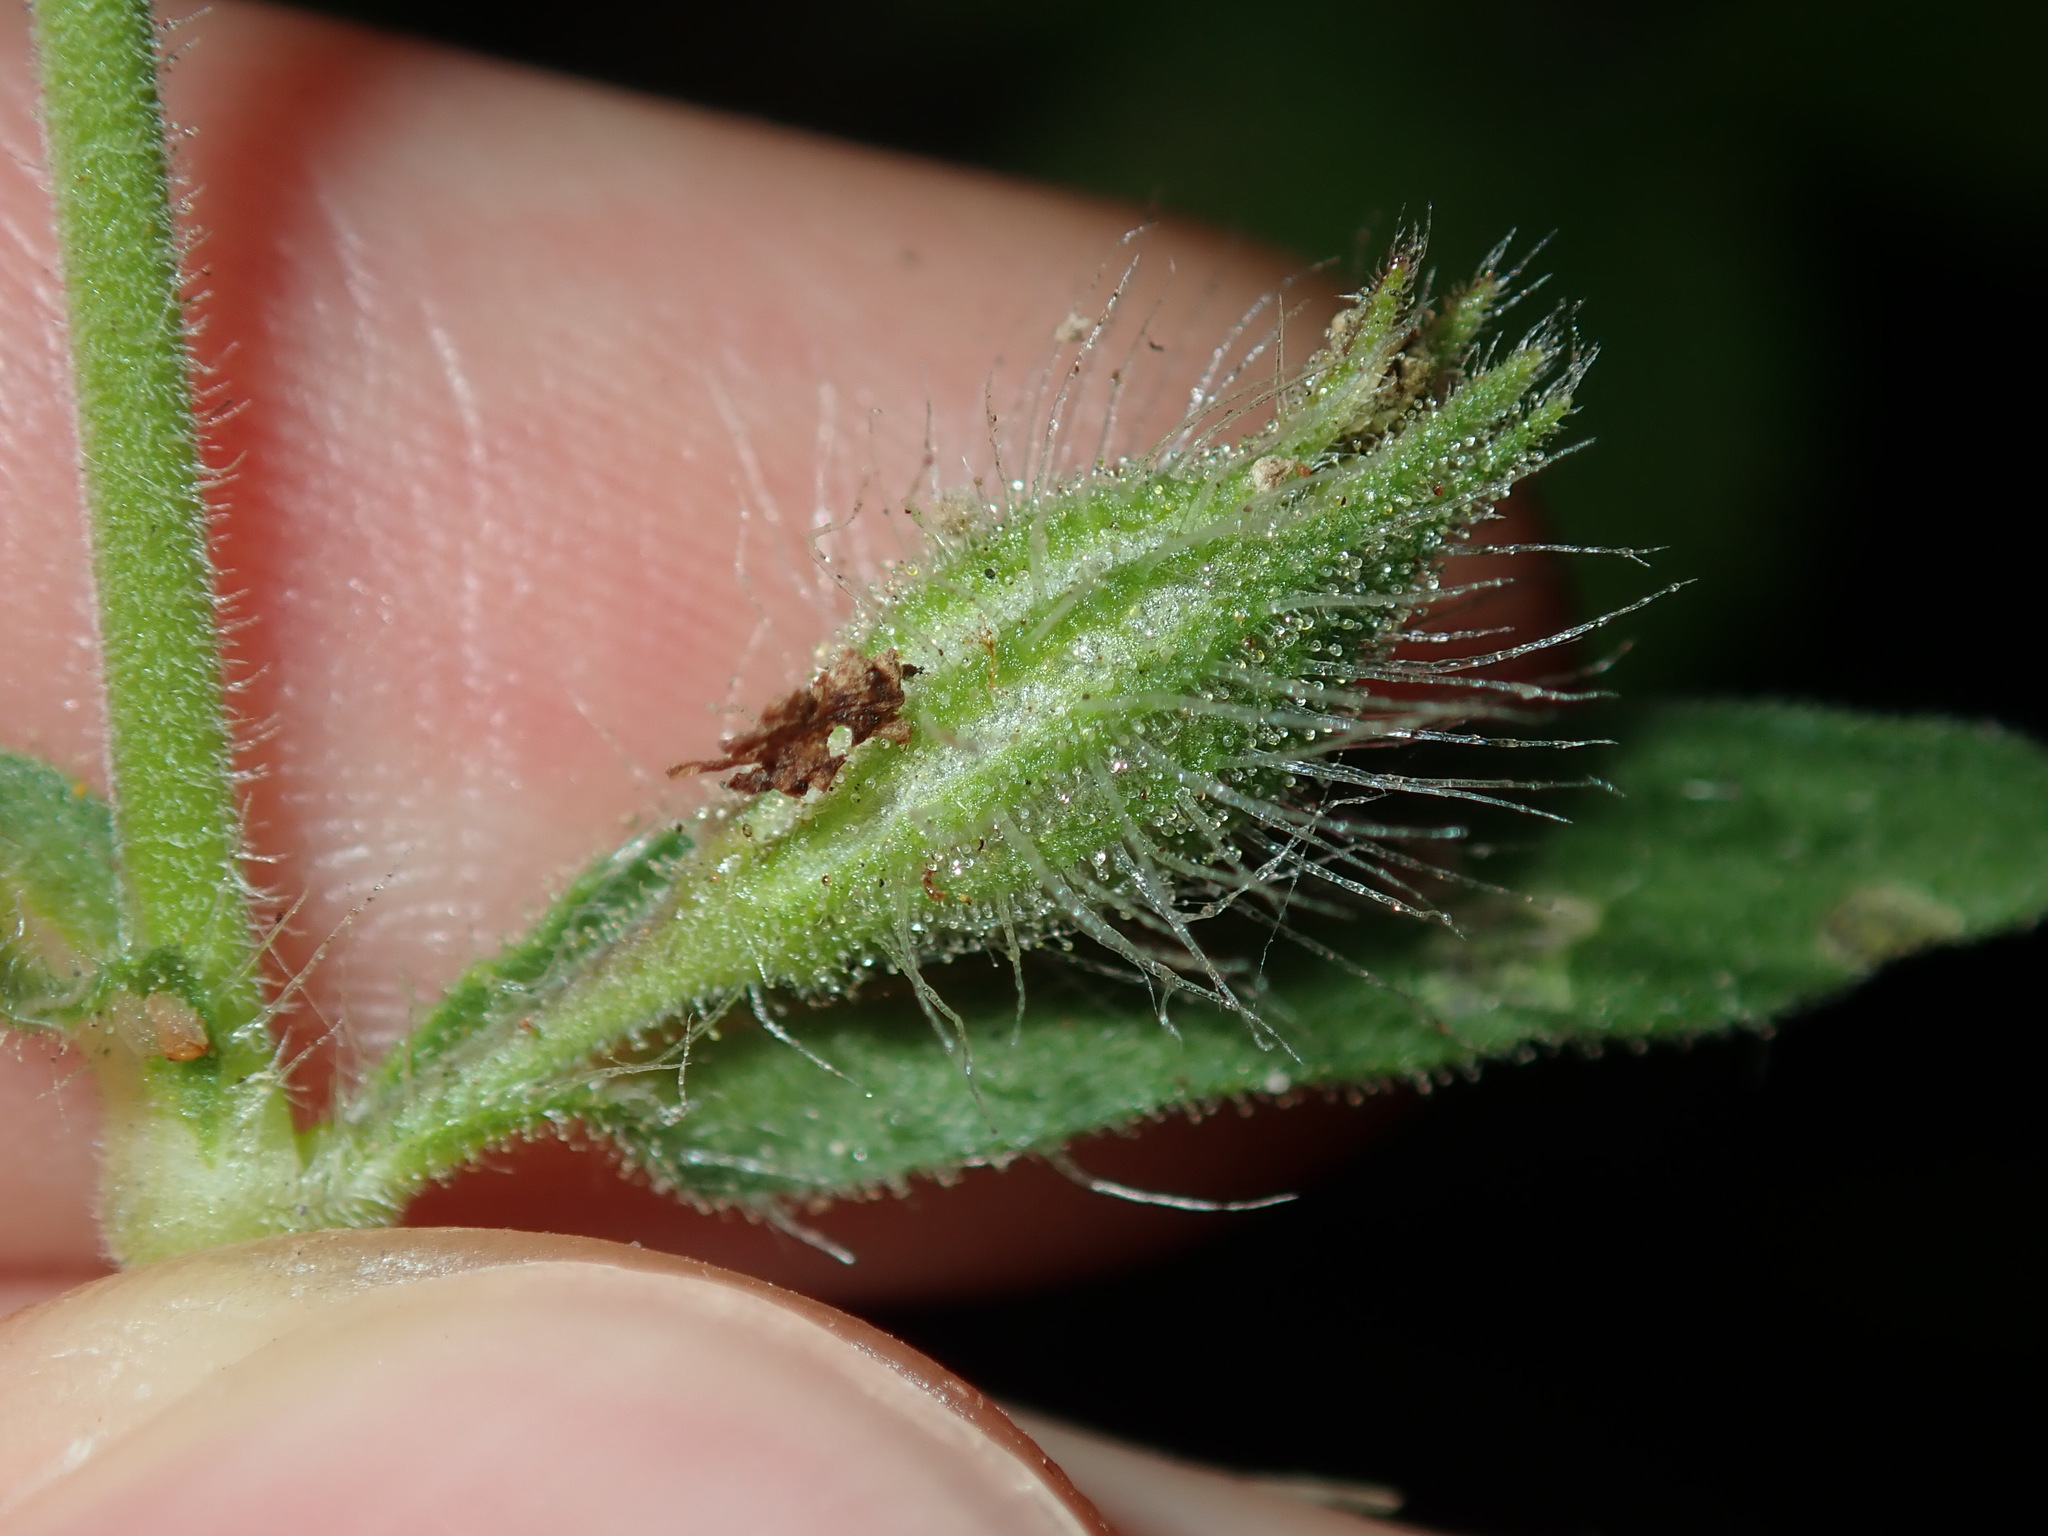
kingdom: Plantae
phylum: Tracheophyta
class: Magnoliopsida
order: Caryophyllales
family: Caryophyllaceae
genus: Silene
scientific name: Silene gallica
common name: Small-flowered catchfly
